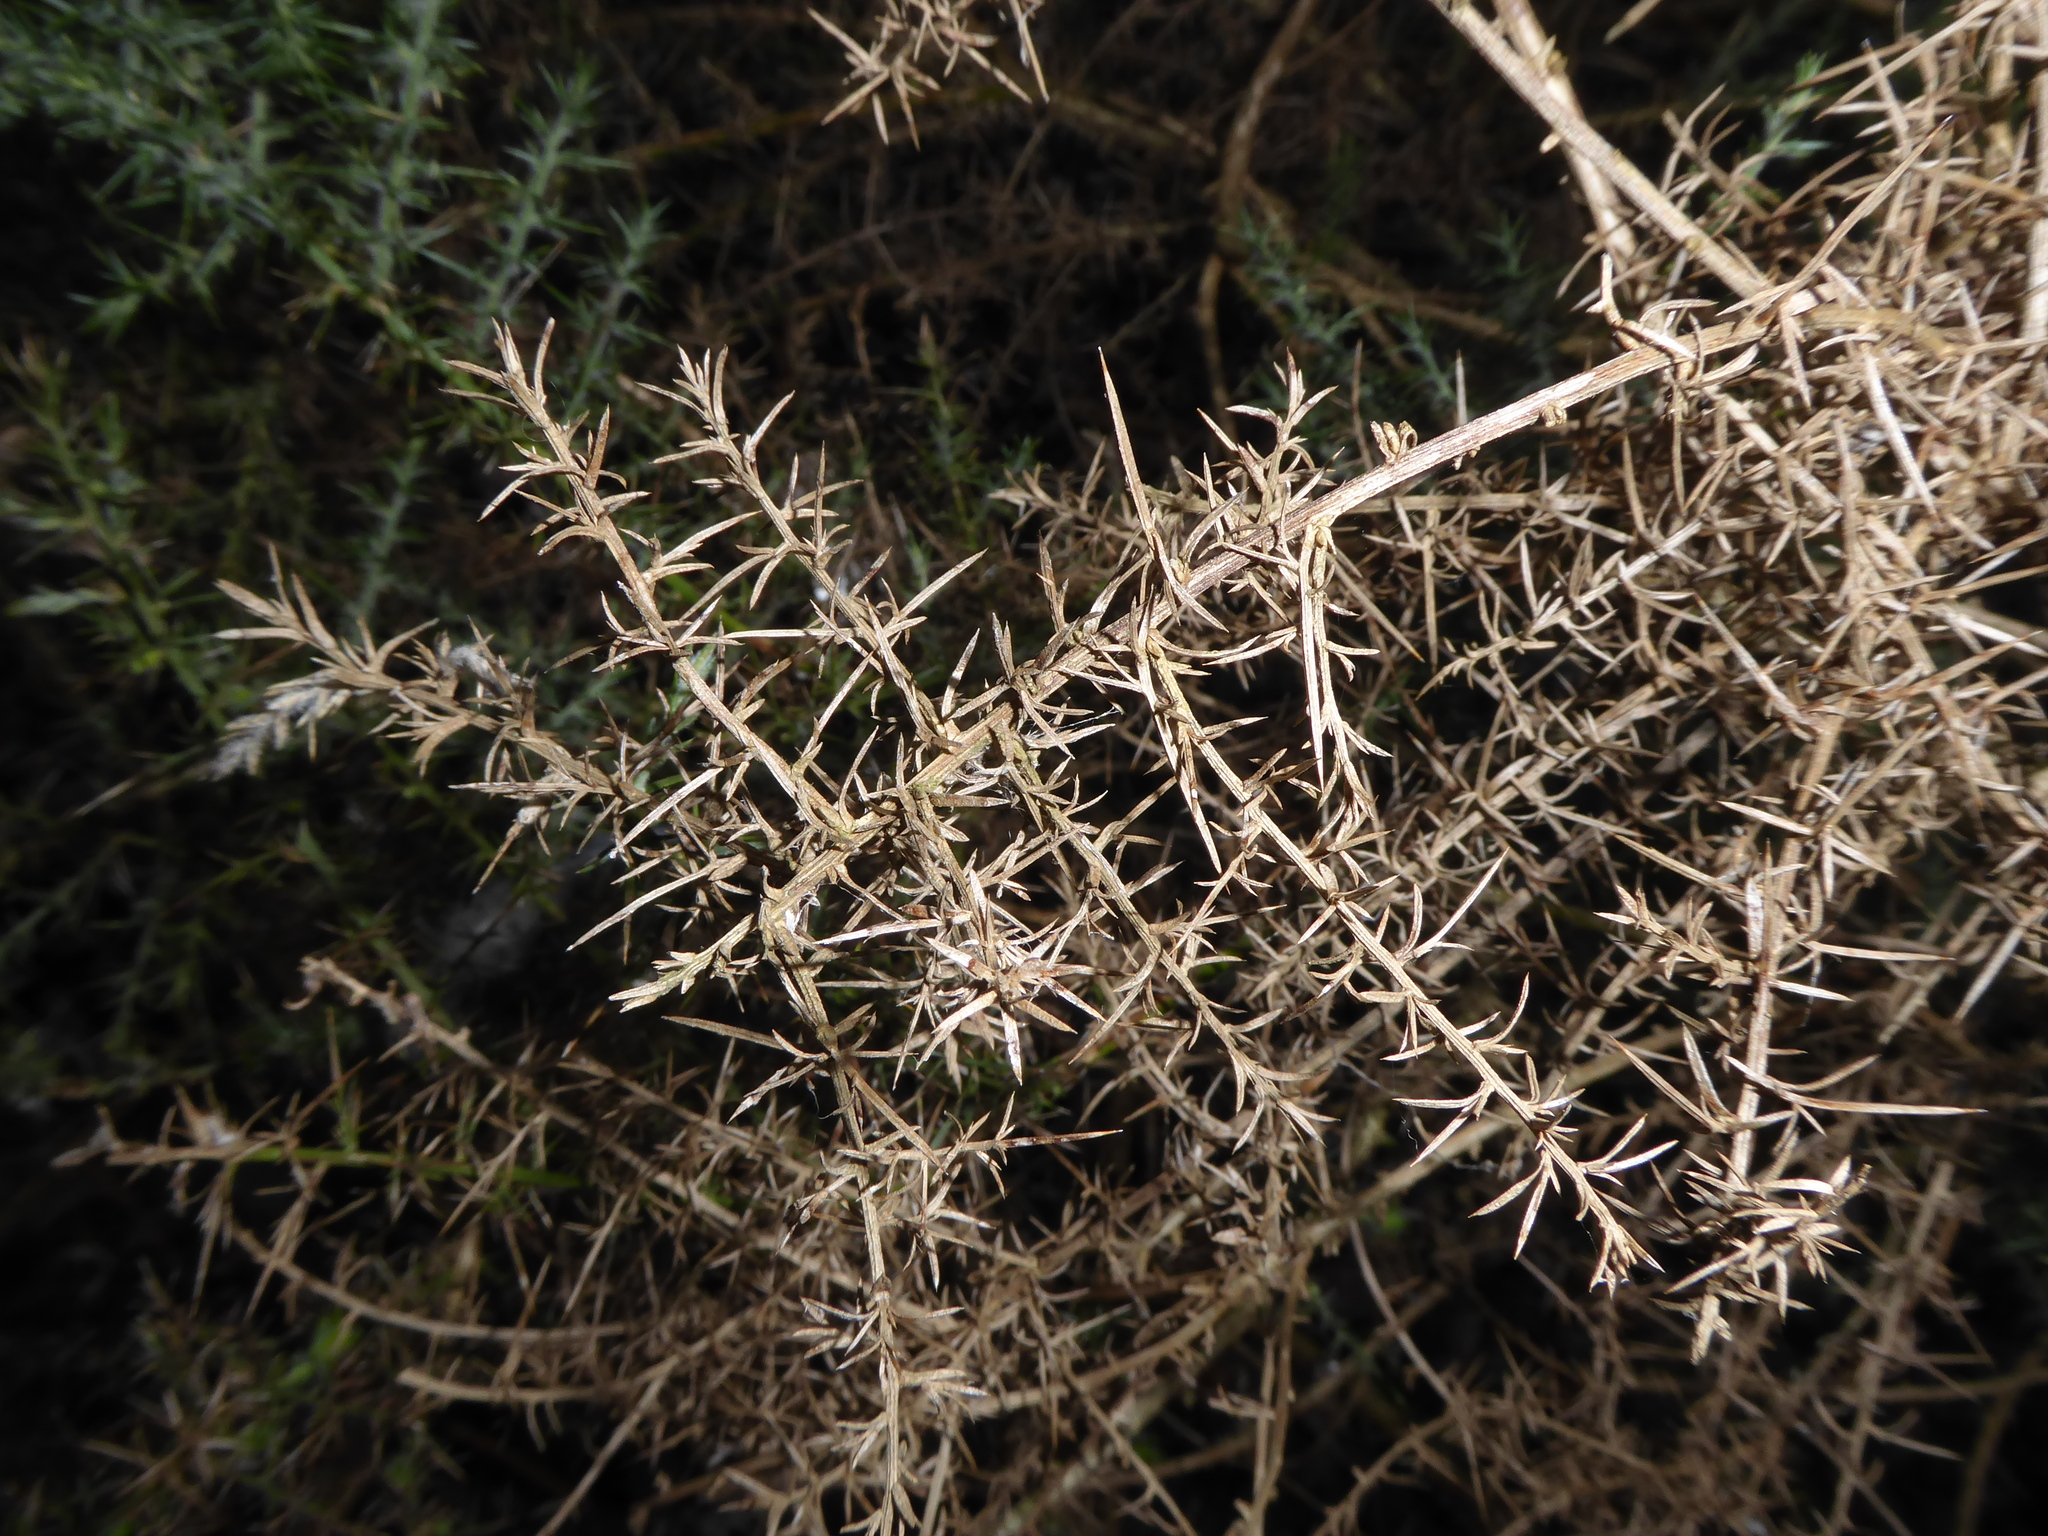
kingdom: Plantae
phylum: Tracheophyta
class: Magnoliopsida
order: Fabales
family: Fabaceae
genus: Ulex
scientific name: Ulex europaeus
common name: Common gorse
